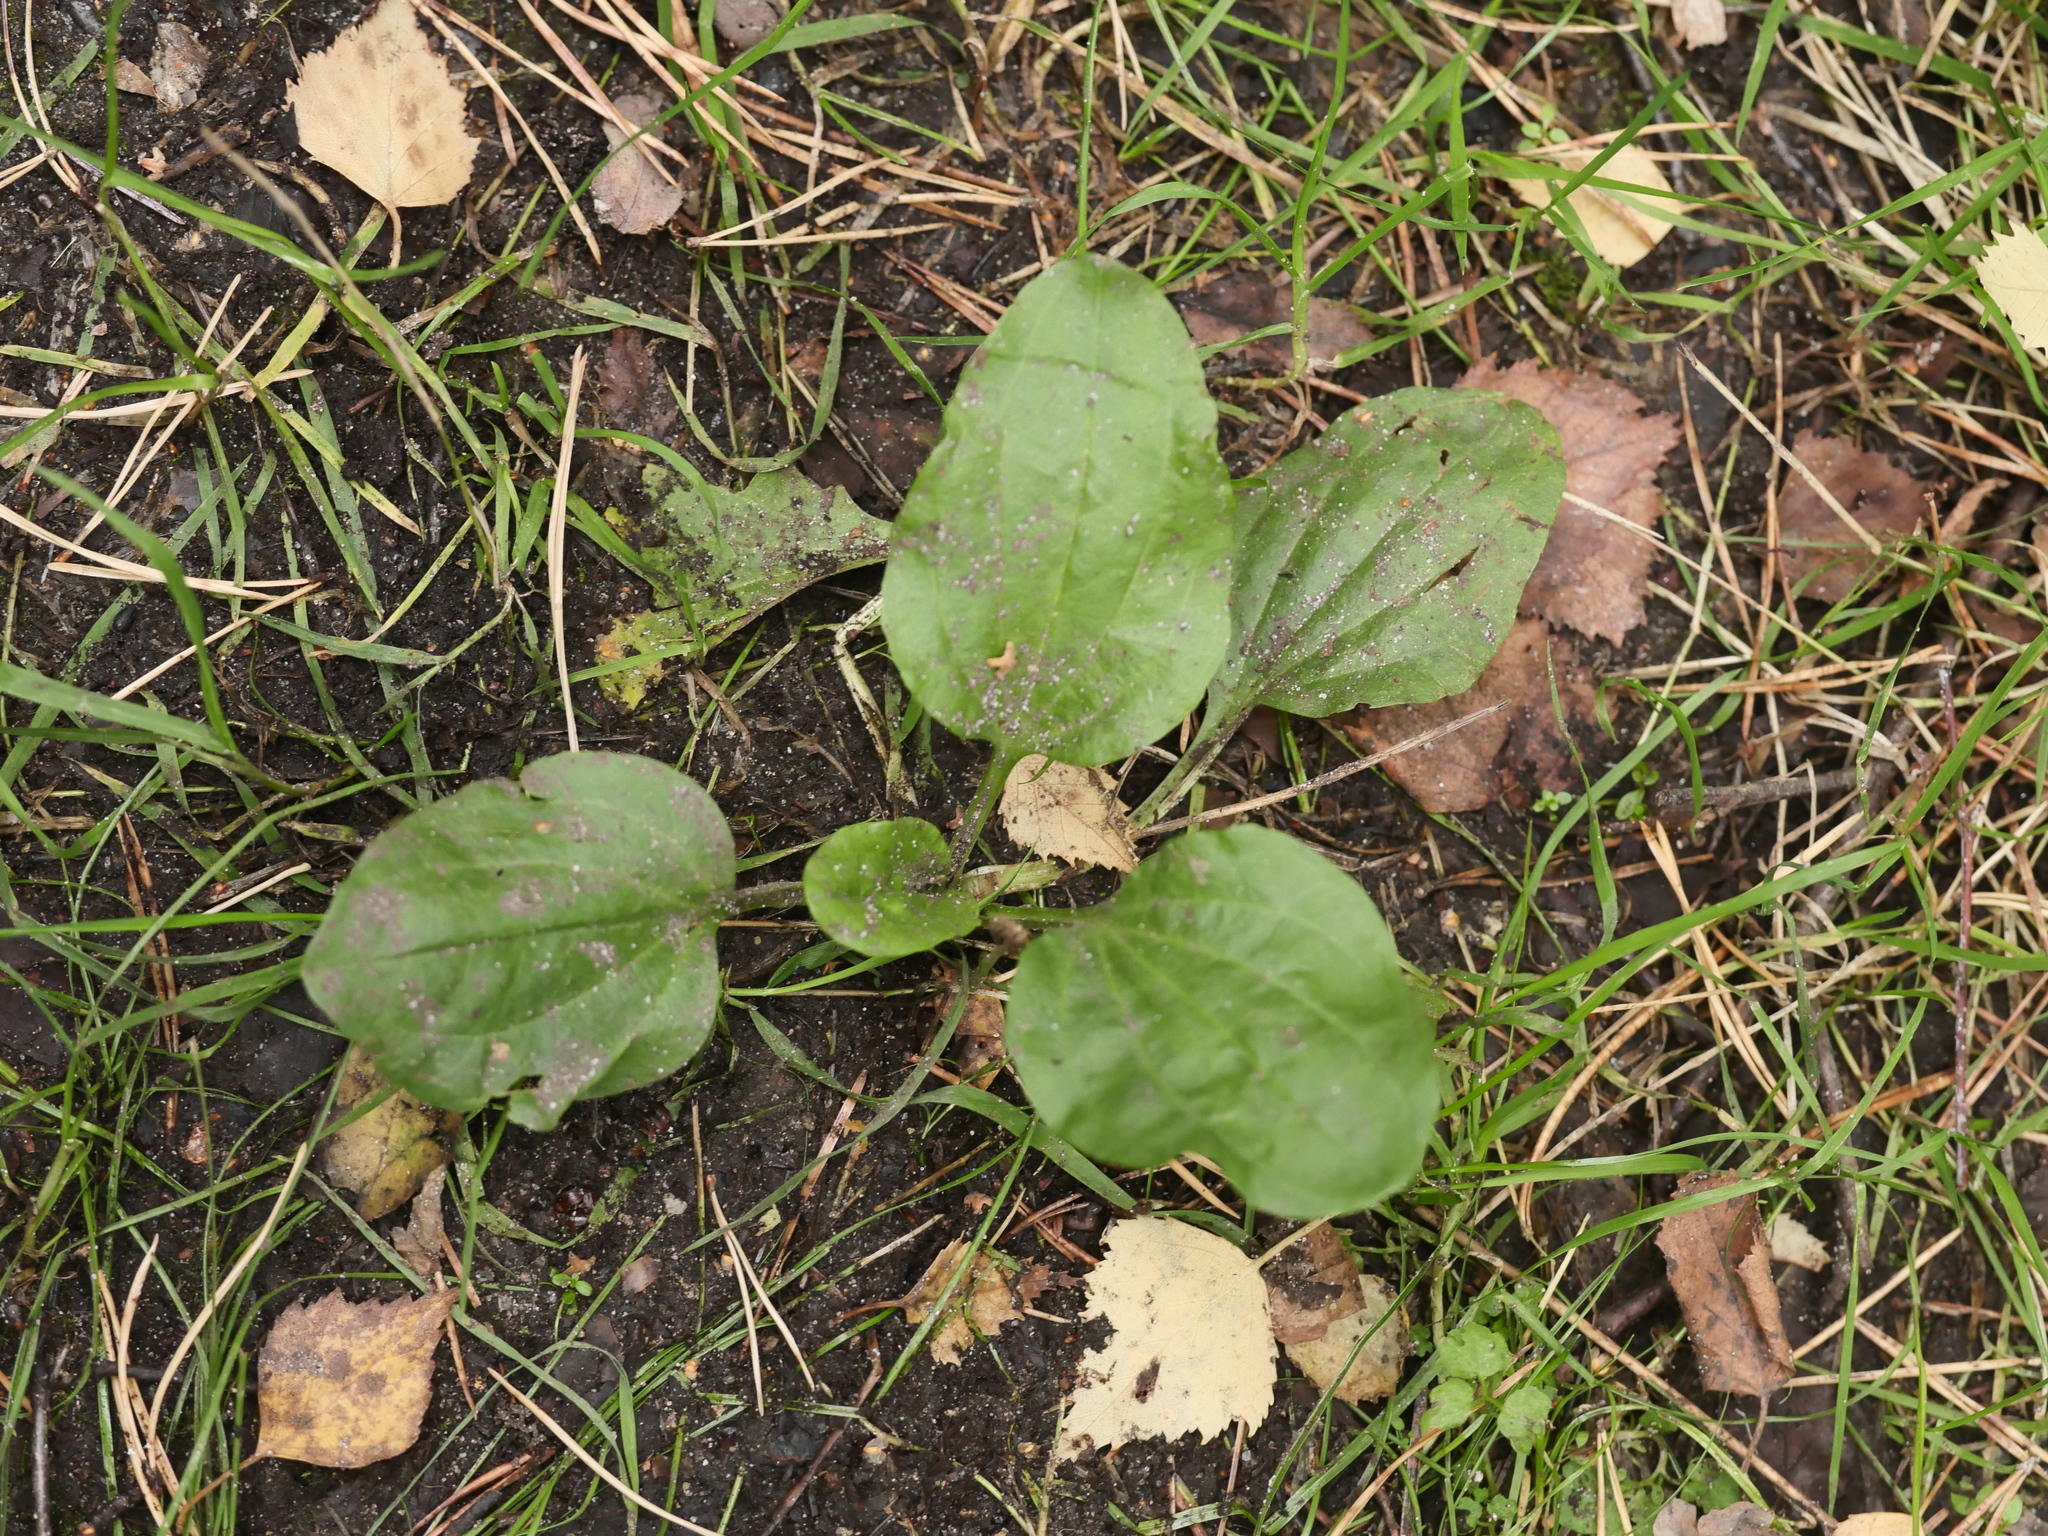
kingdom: Plantae
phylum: Tracheophyta
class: Magnoliopsida
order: Lamiales
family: Plantaginaceae
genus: Plantago
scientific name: Plantago major
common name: Common plantain
